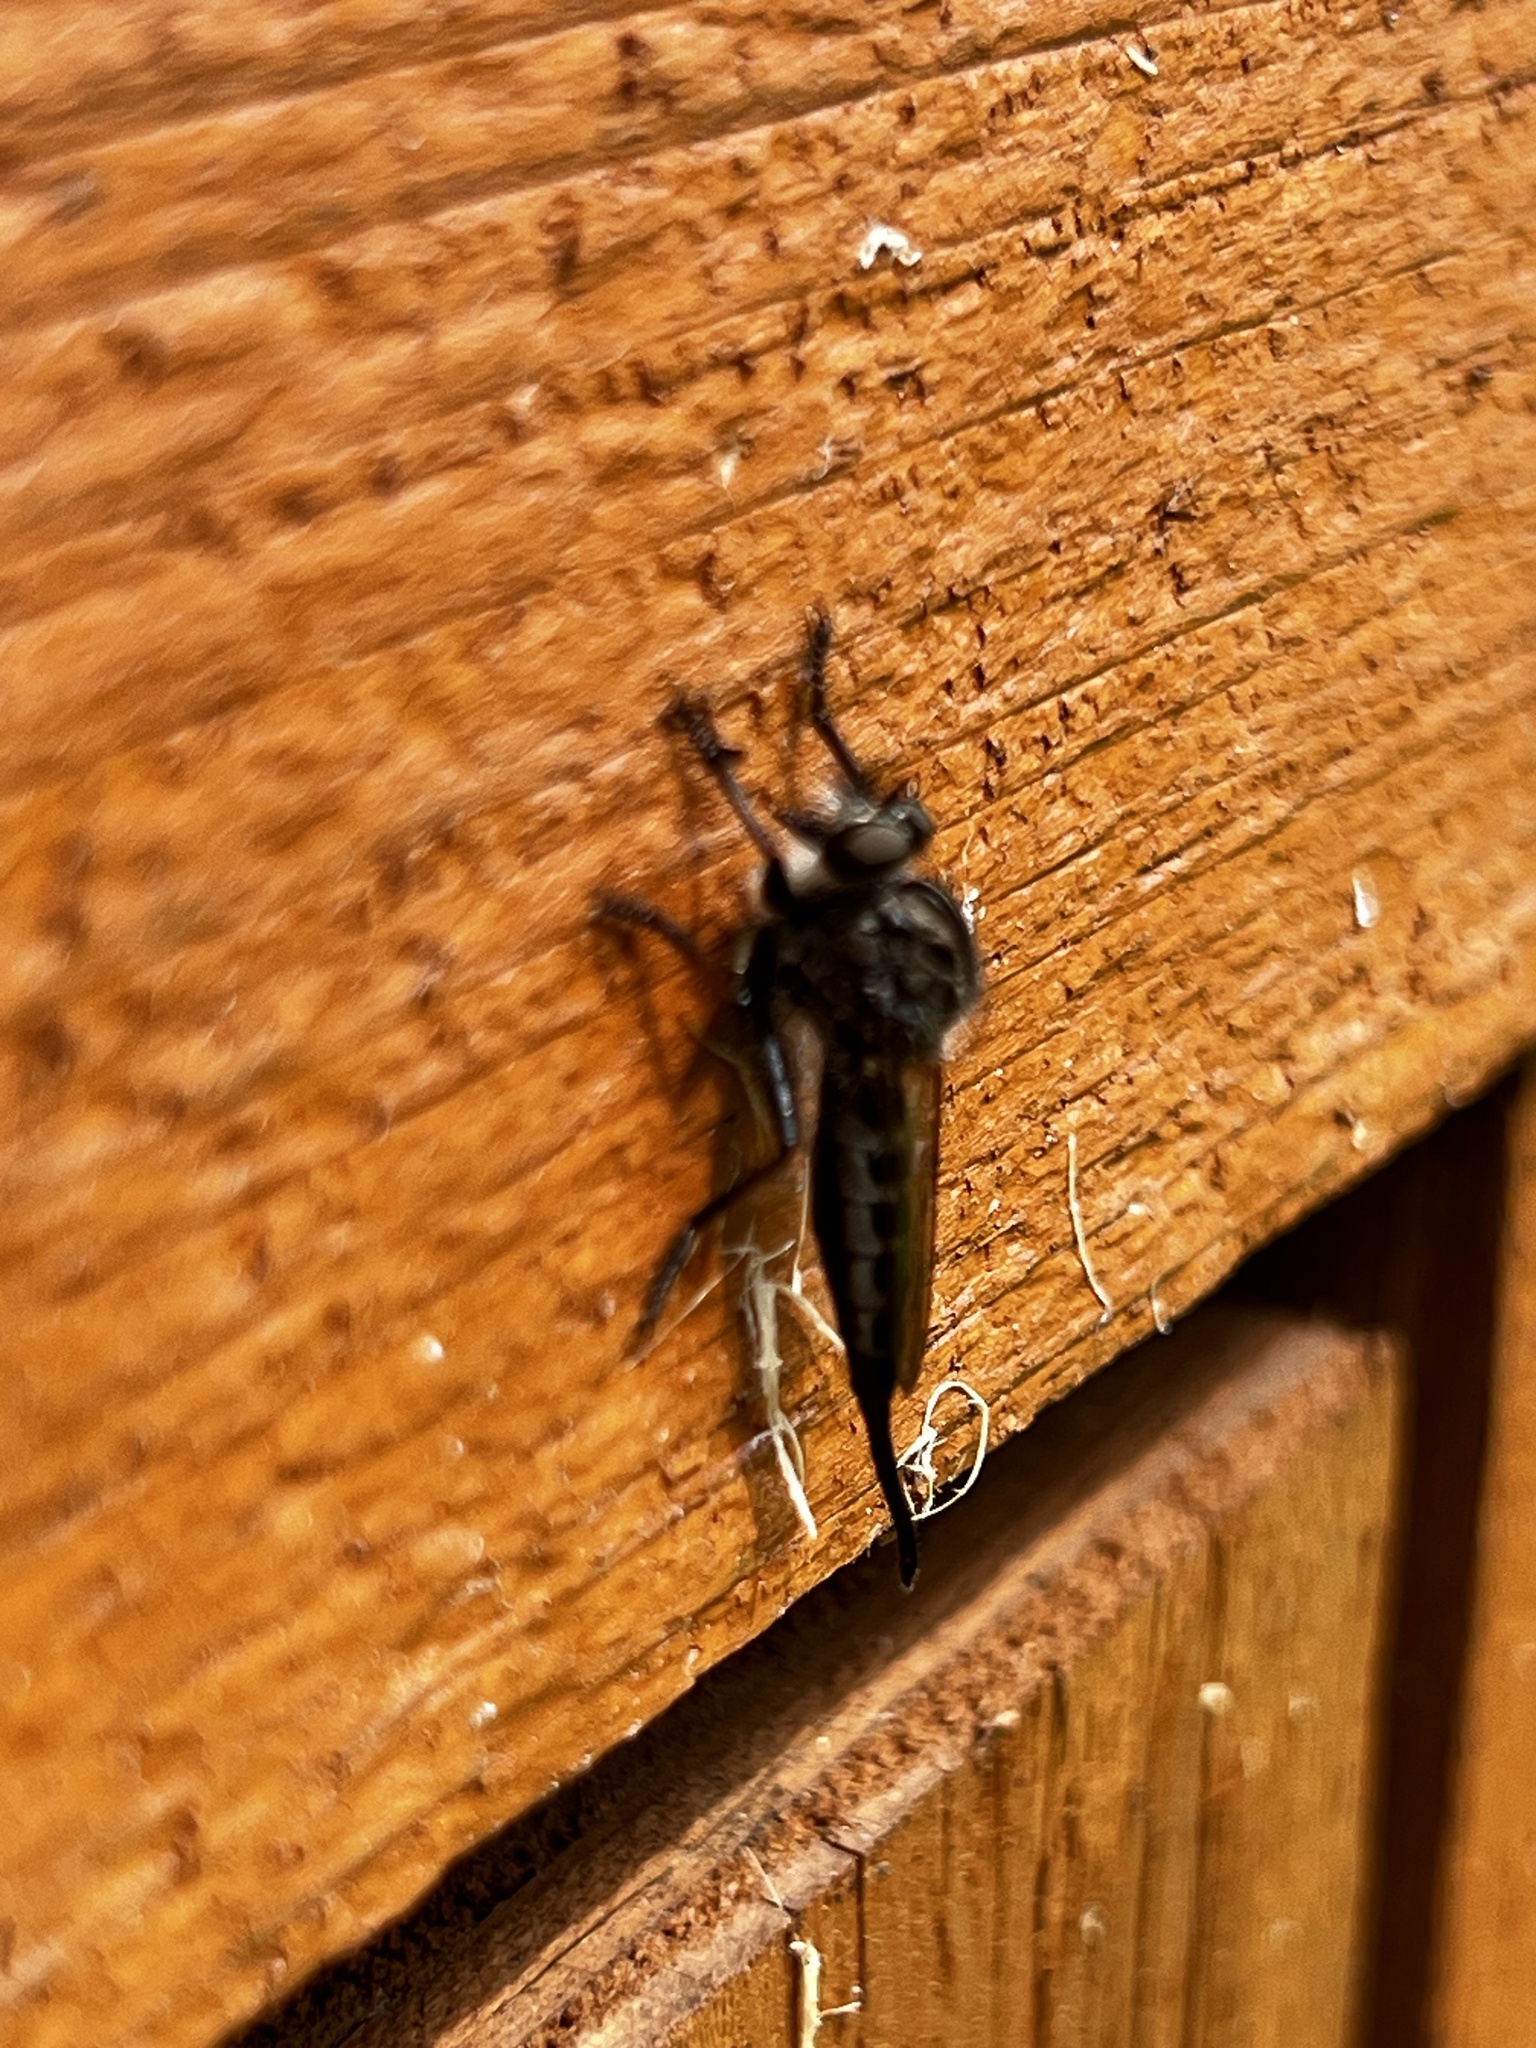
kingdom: Animalia
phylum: Arthropoda
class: Insecta
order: Diptera
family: Asilidae
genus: Efferia
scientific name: Efferia aestuans
